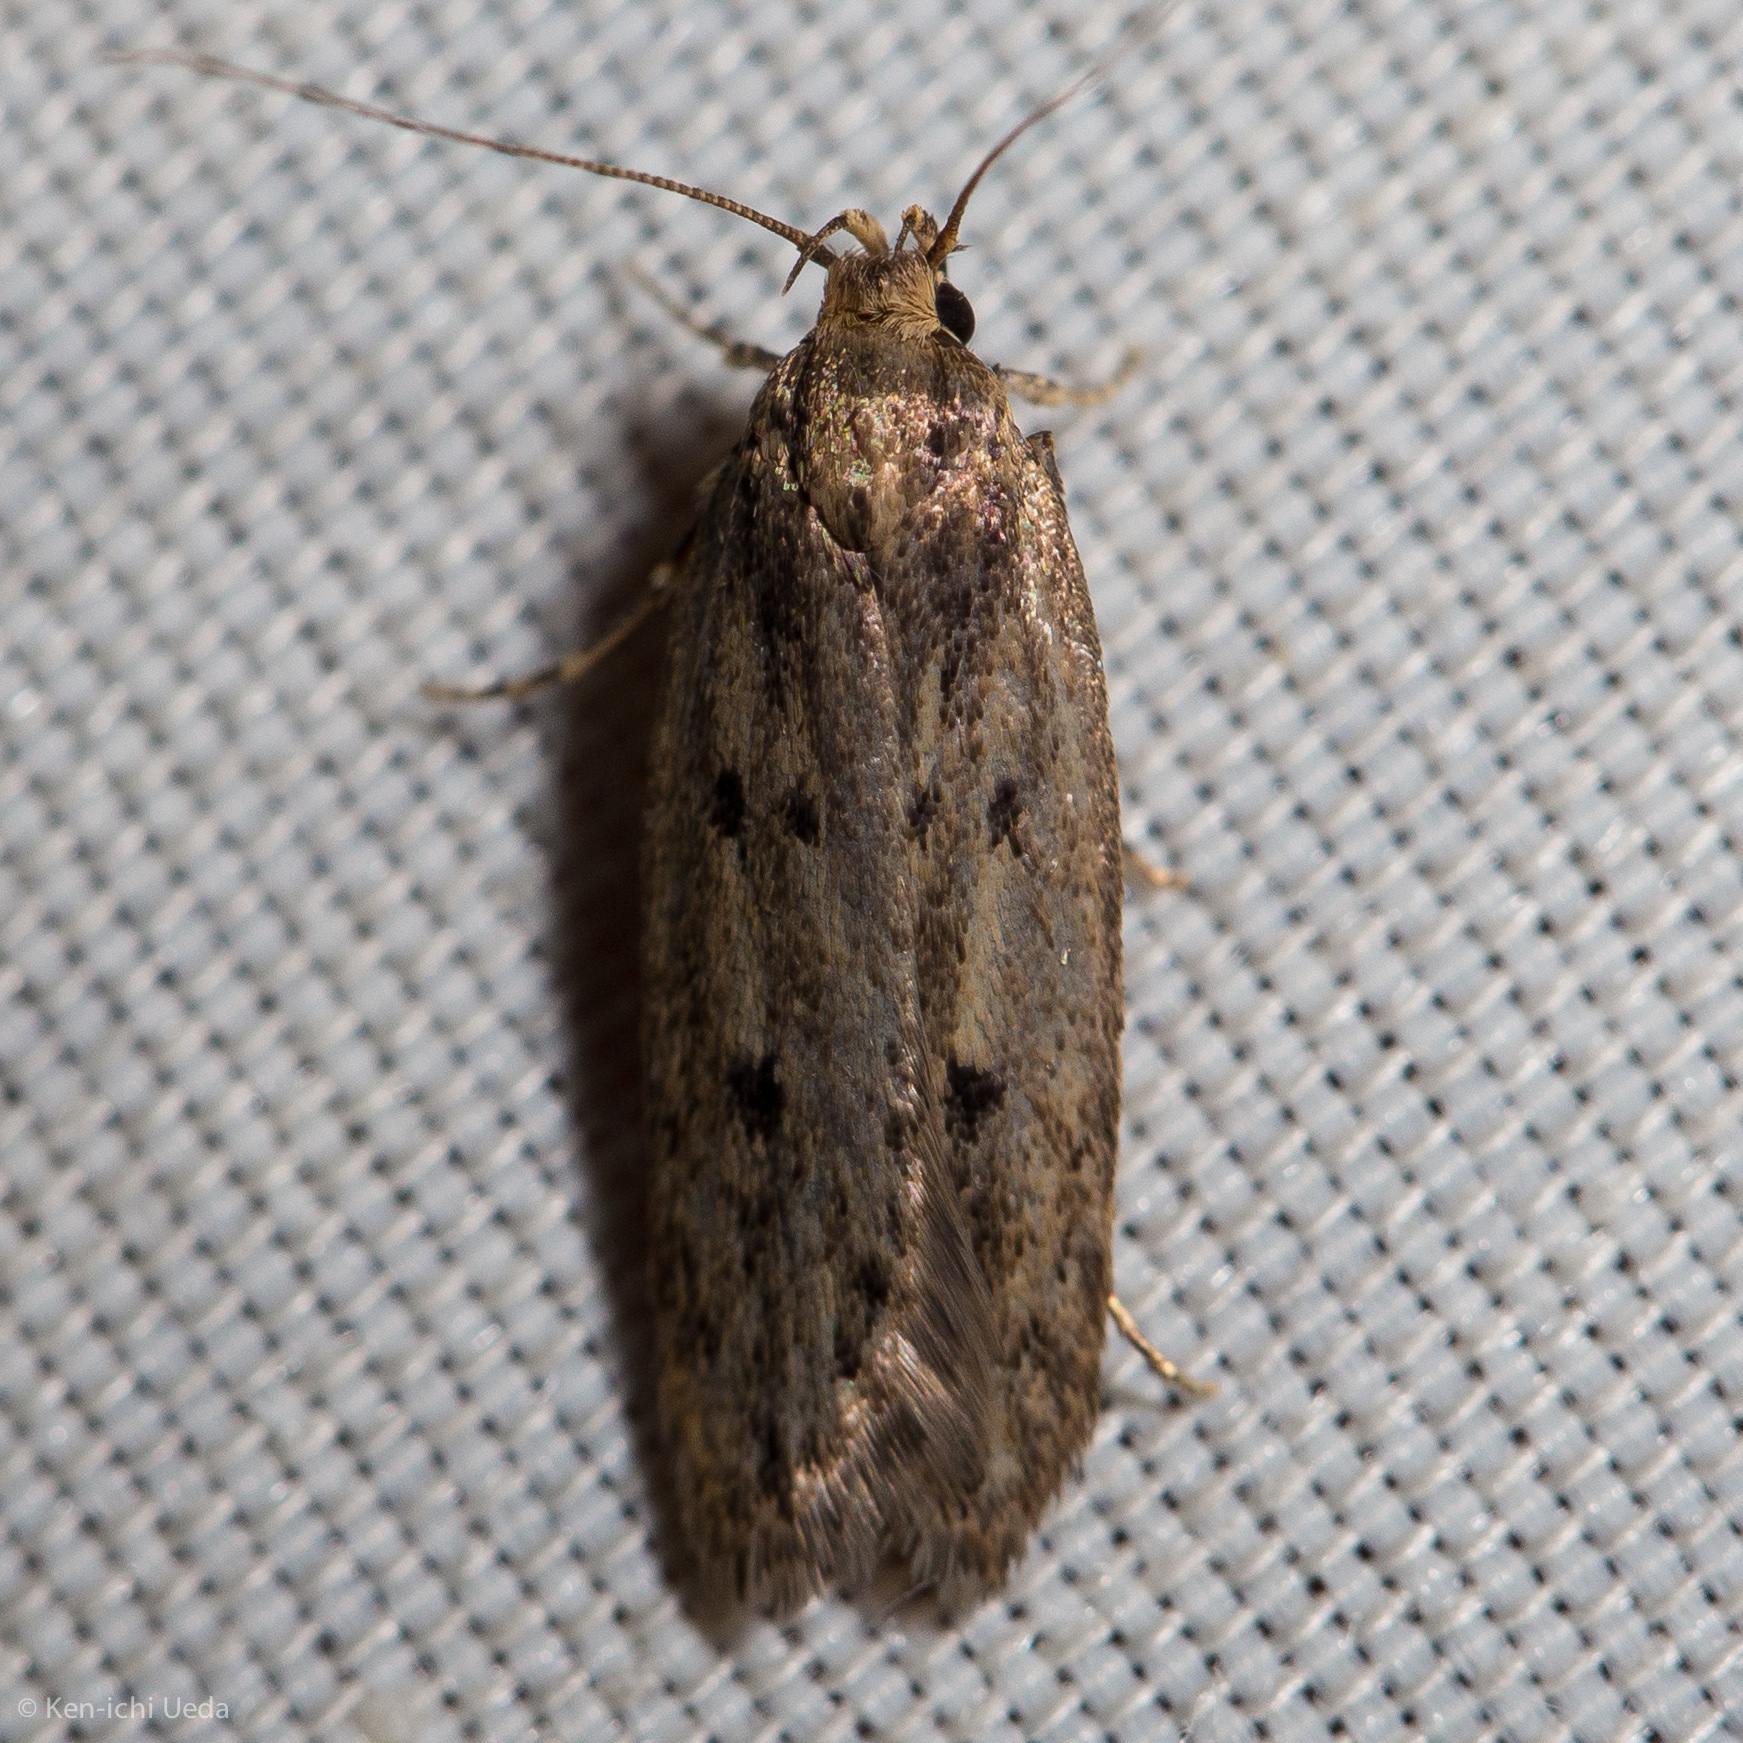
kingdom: Animalia
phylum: Arthropoda
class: Insecta
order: Lepidoptera
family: Oecophoridae
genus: Hofmannophila
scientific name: Hofmannophila pseudospretella
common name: Brown house moth
